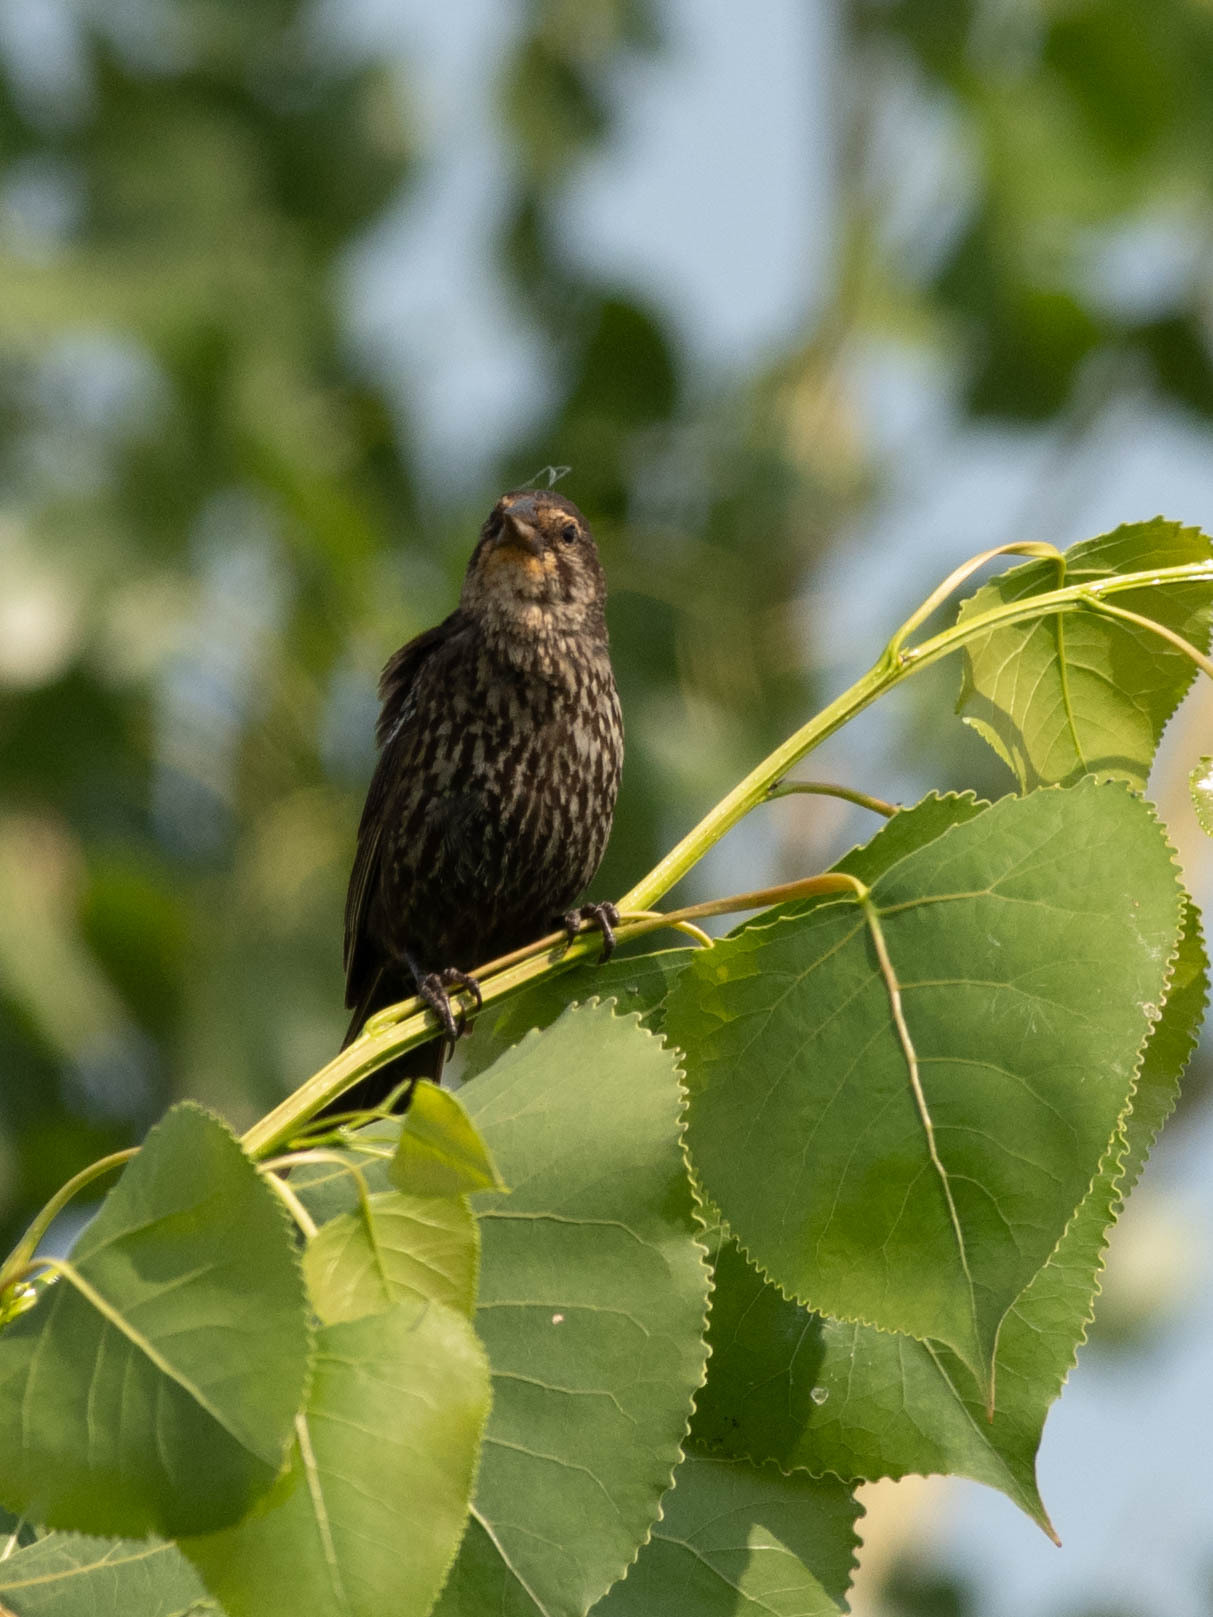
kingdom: Animalia
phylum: Chordata
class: Aves
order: Passeriformes
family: Icteridae
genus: Agelaius
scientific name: Agelaius phoeniceus
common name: Red-winged blackbird
